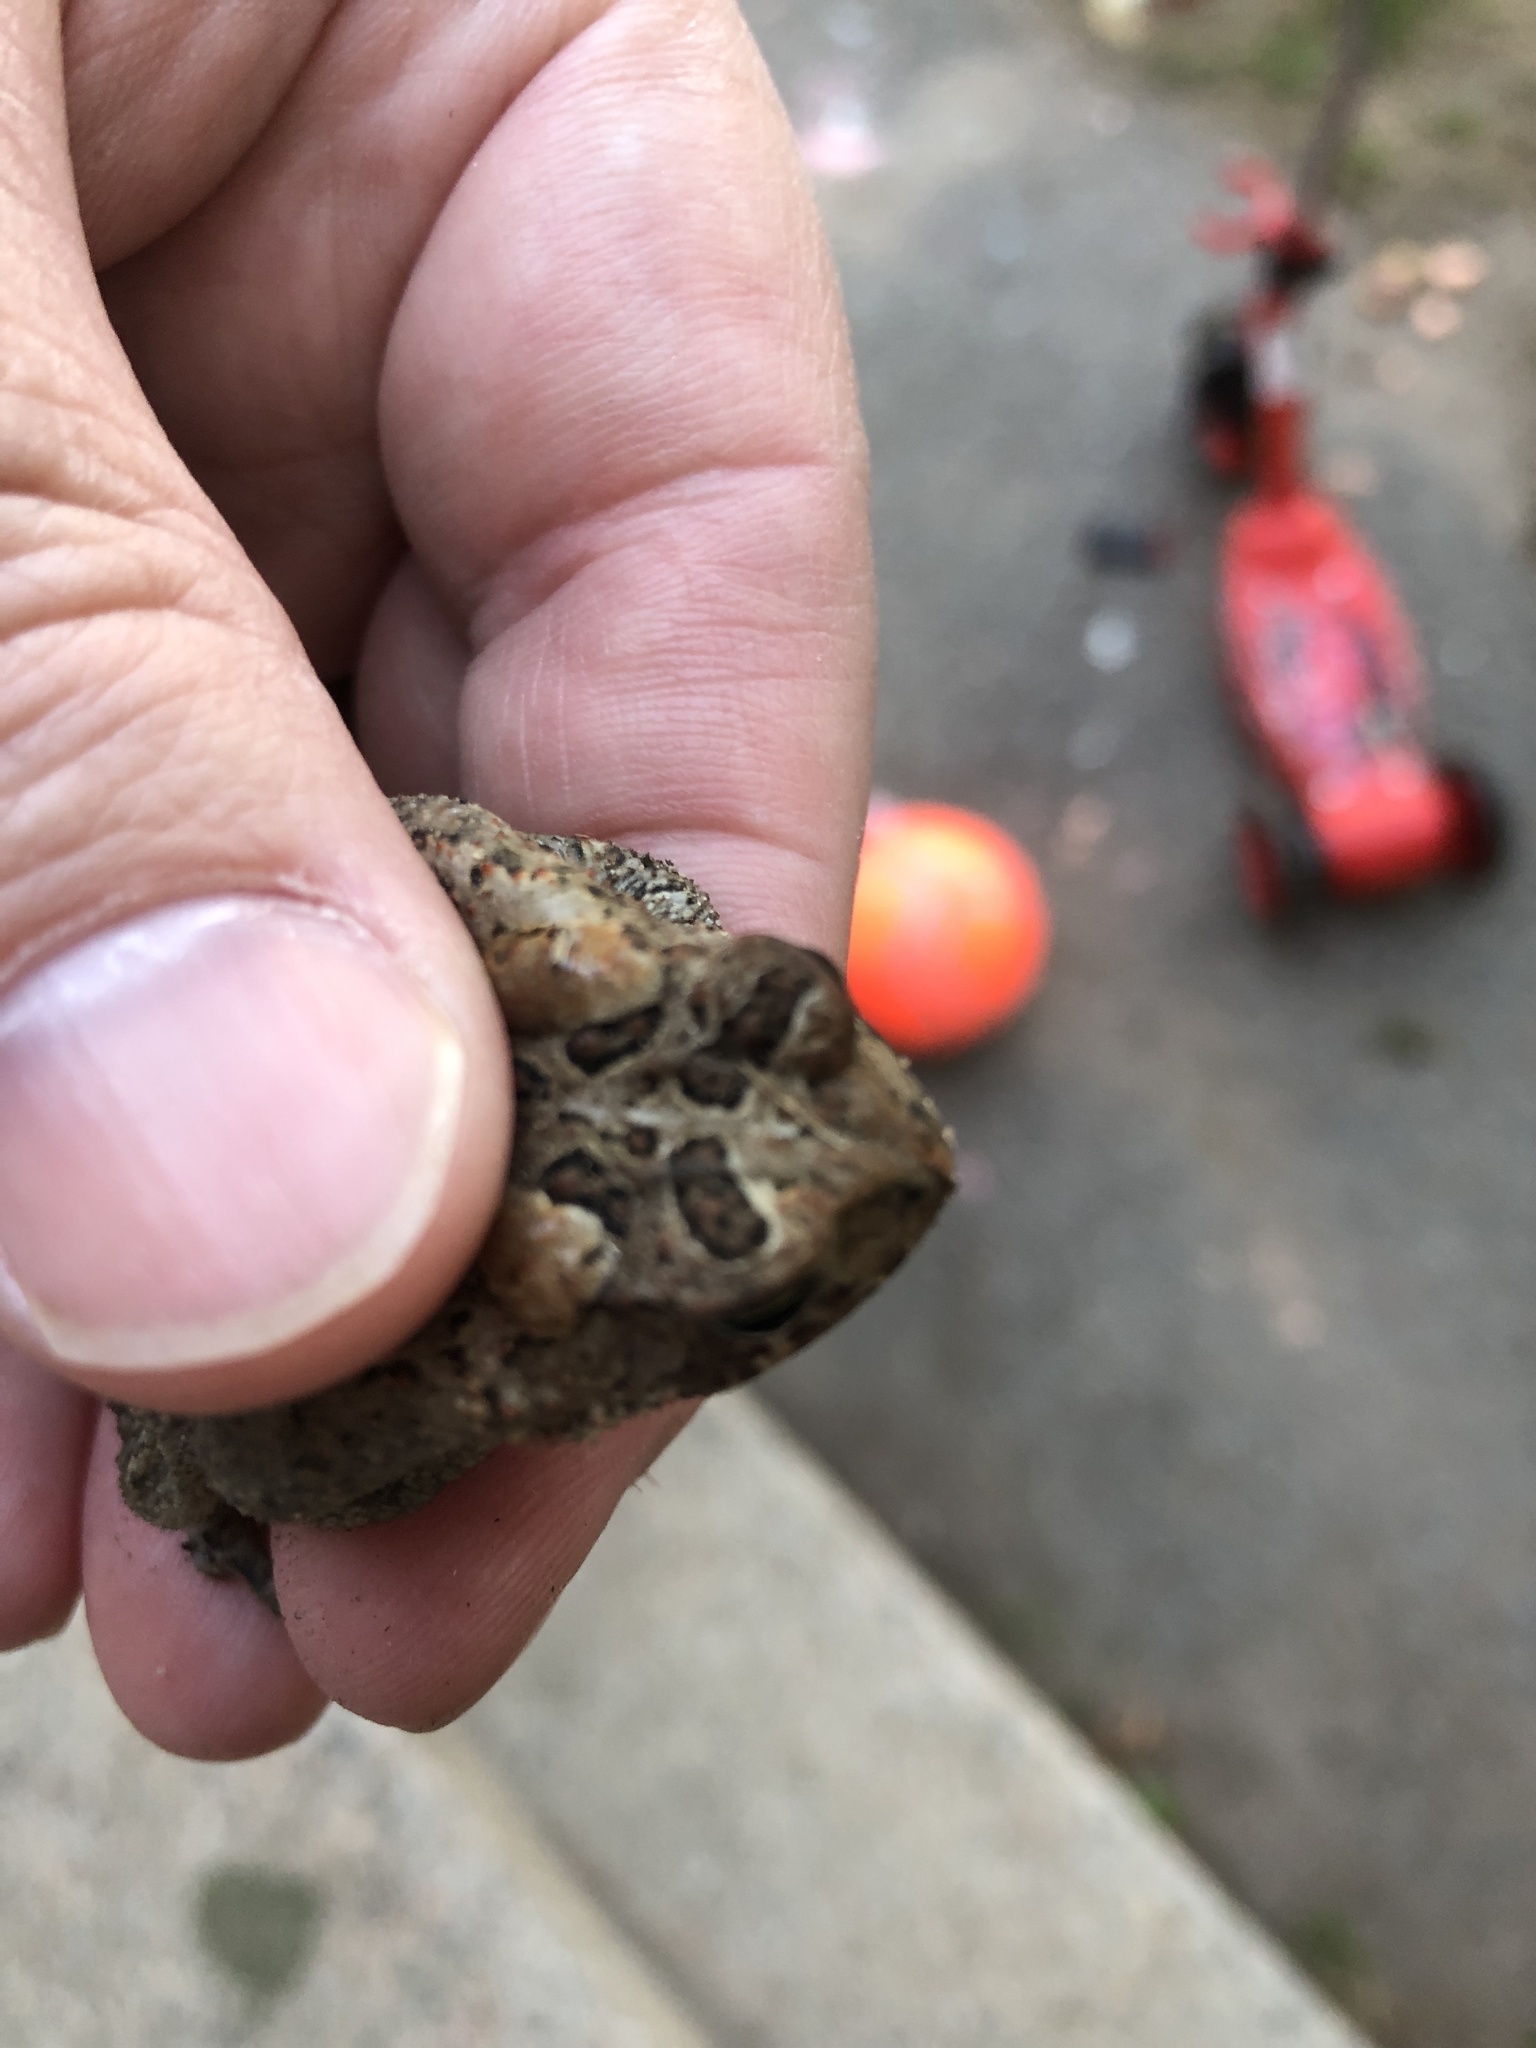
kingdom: Animalia
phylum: Chordata
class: Amphibia
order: Anura
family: Bufonidae
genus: Anaxyrus
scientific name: Anaxyrus americanus
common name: American toad
